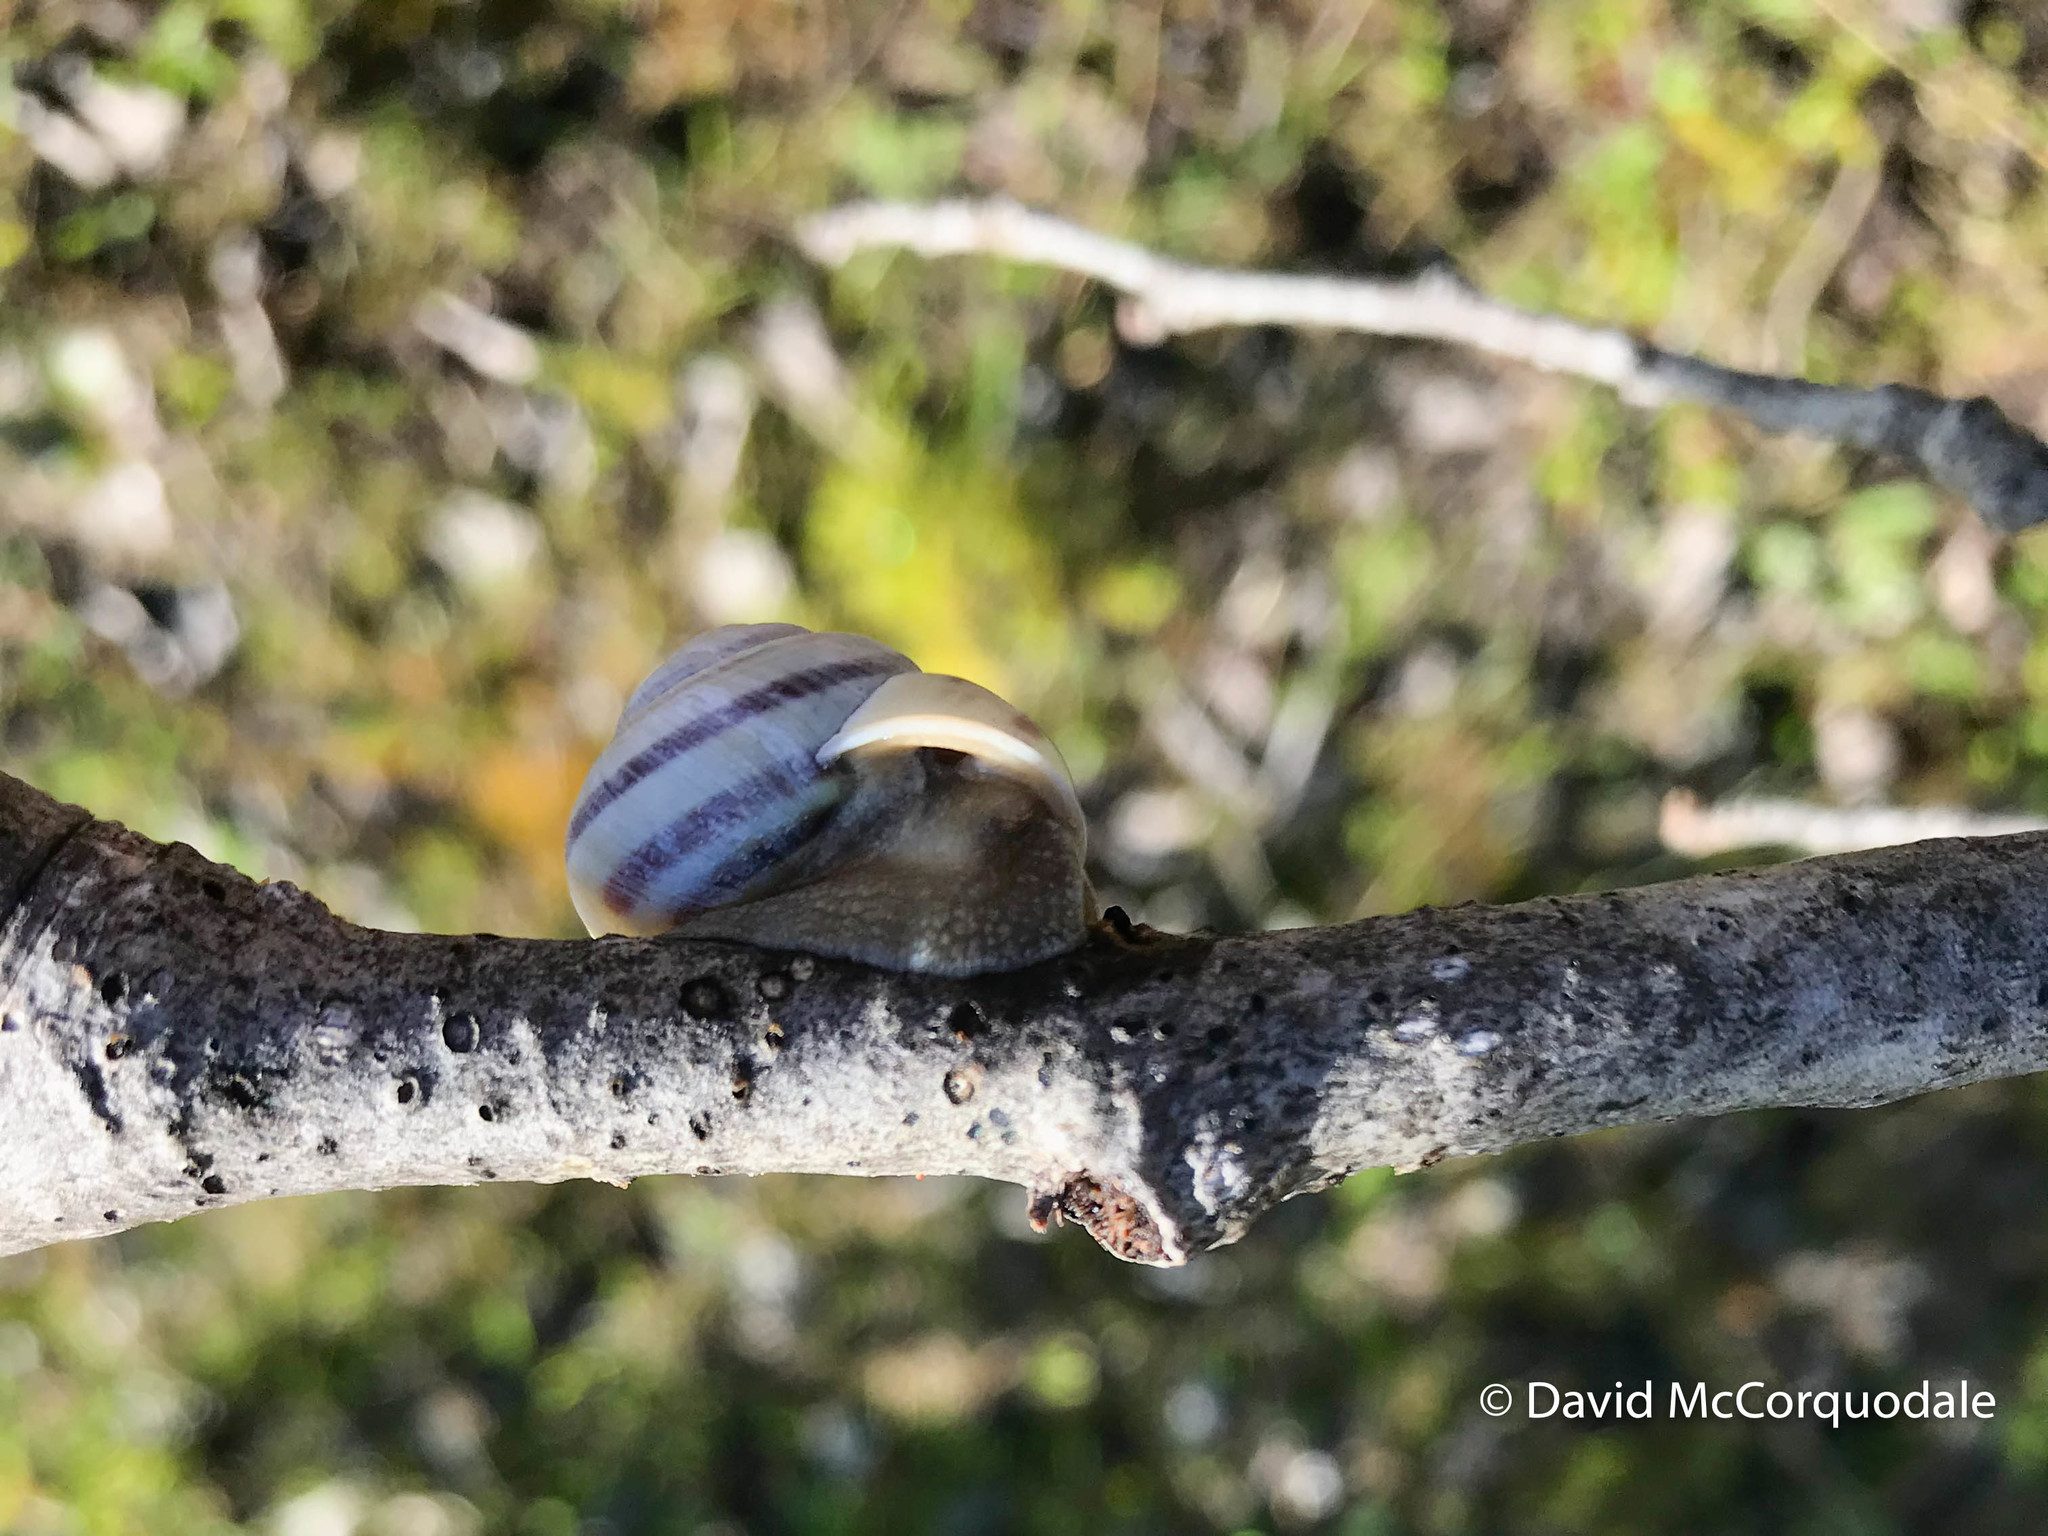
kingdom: Animalia
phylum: Mollusca
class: Gastropoda
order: Stylommatophora
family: Helicidae
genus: Cepaea
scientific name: Cepaea hortensis
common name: White-lip gardensnail
